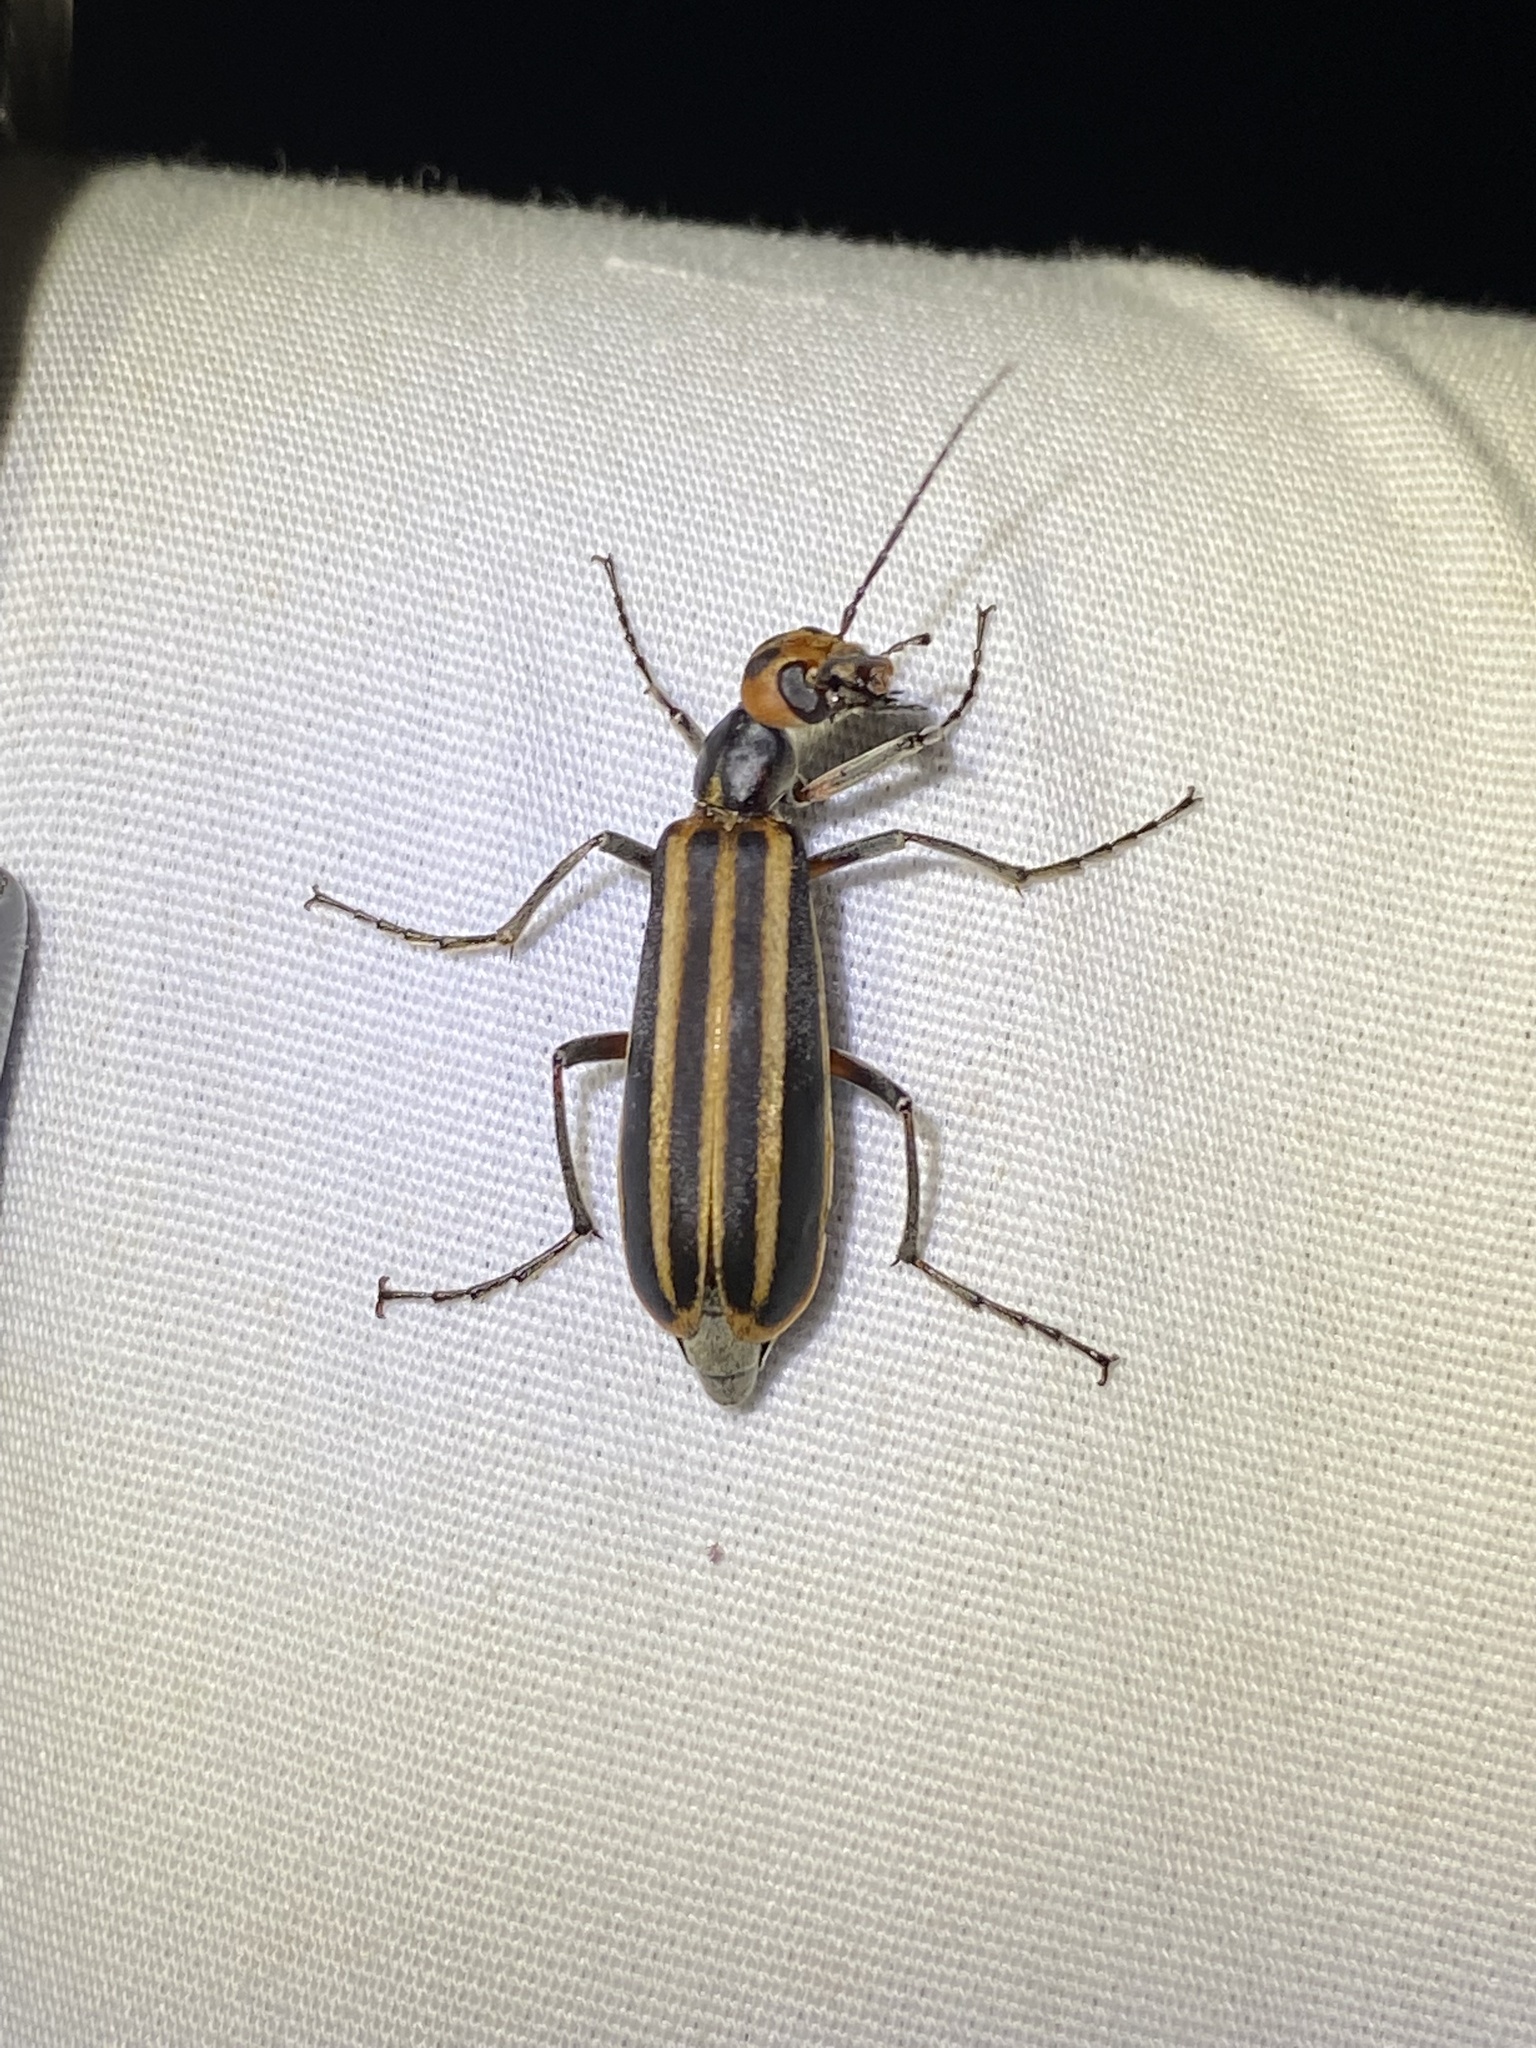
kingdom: Animalia
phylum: Arthropoda
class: Insecta
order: Coleoptera
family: Meloidae
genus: Epicauta
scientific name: Epicauta vittata
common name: Old-fashioned potato beetle
